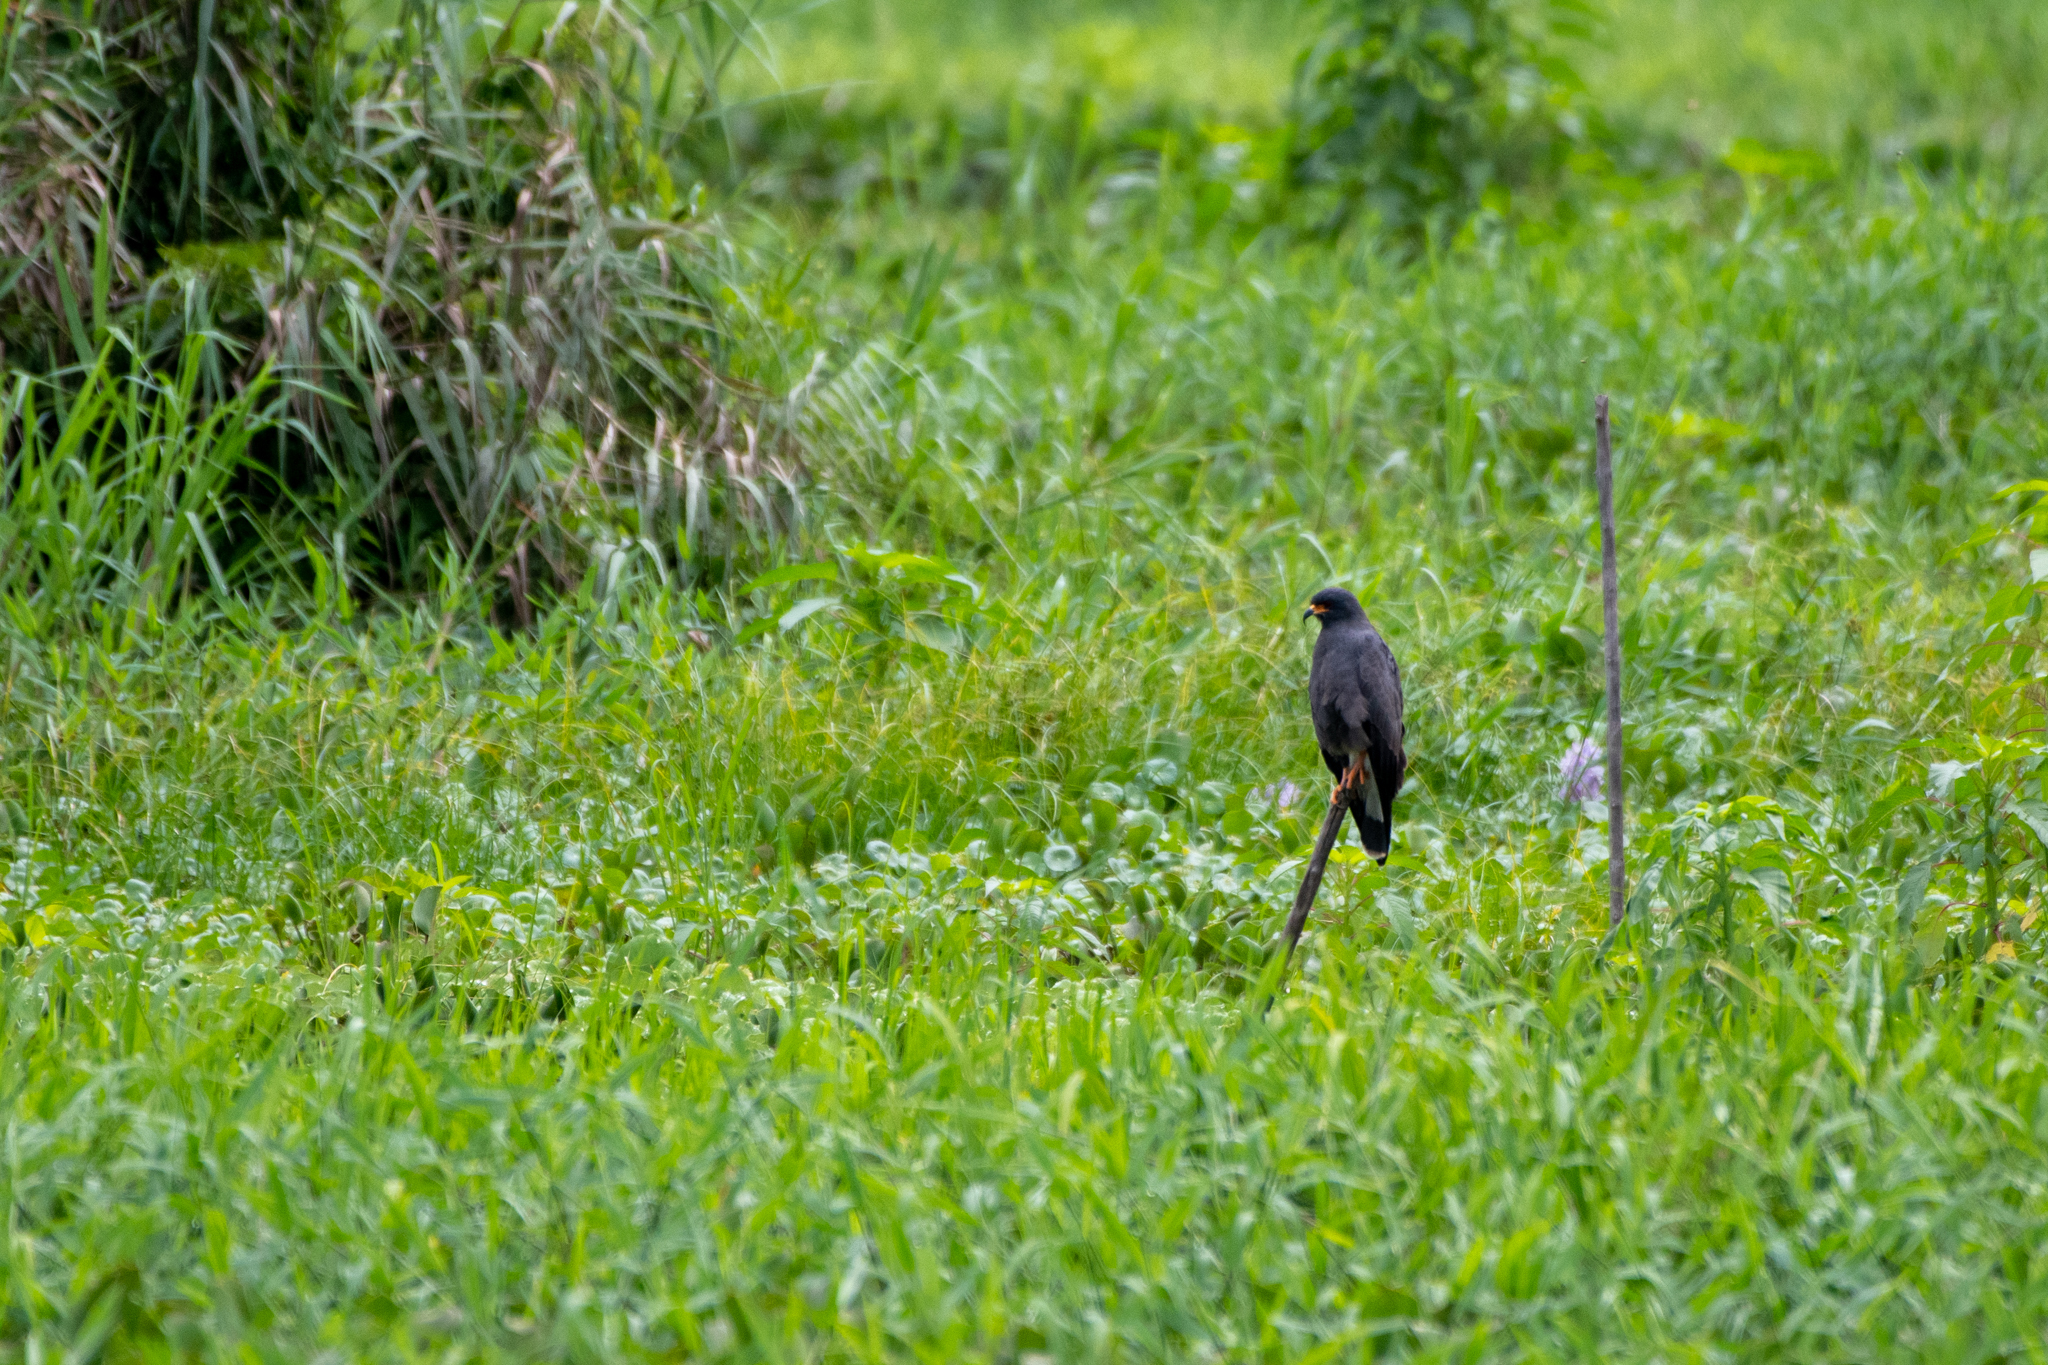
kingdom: Animalia
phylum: Chordata
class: Aves
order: Accipitriformes
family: Accipitridae
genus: Rostrhamus
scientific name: Rostrhamus sociabilis
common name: Snail kite
